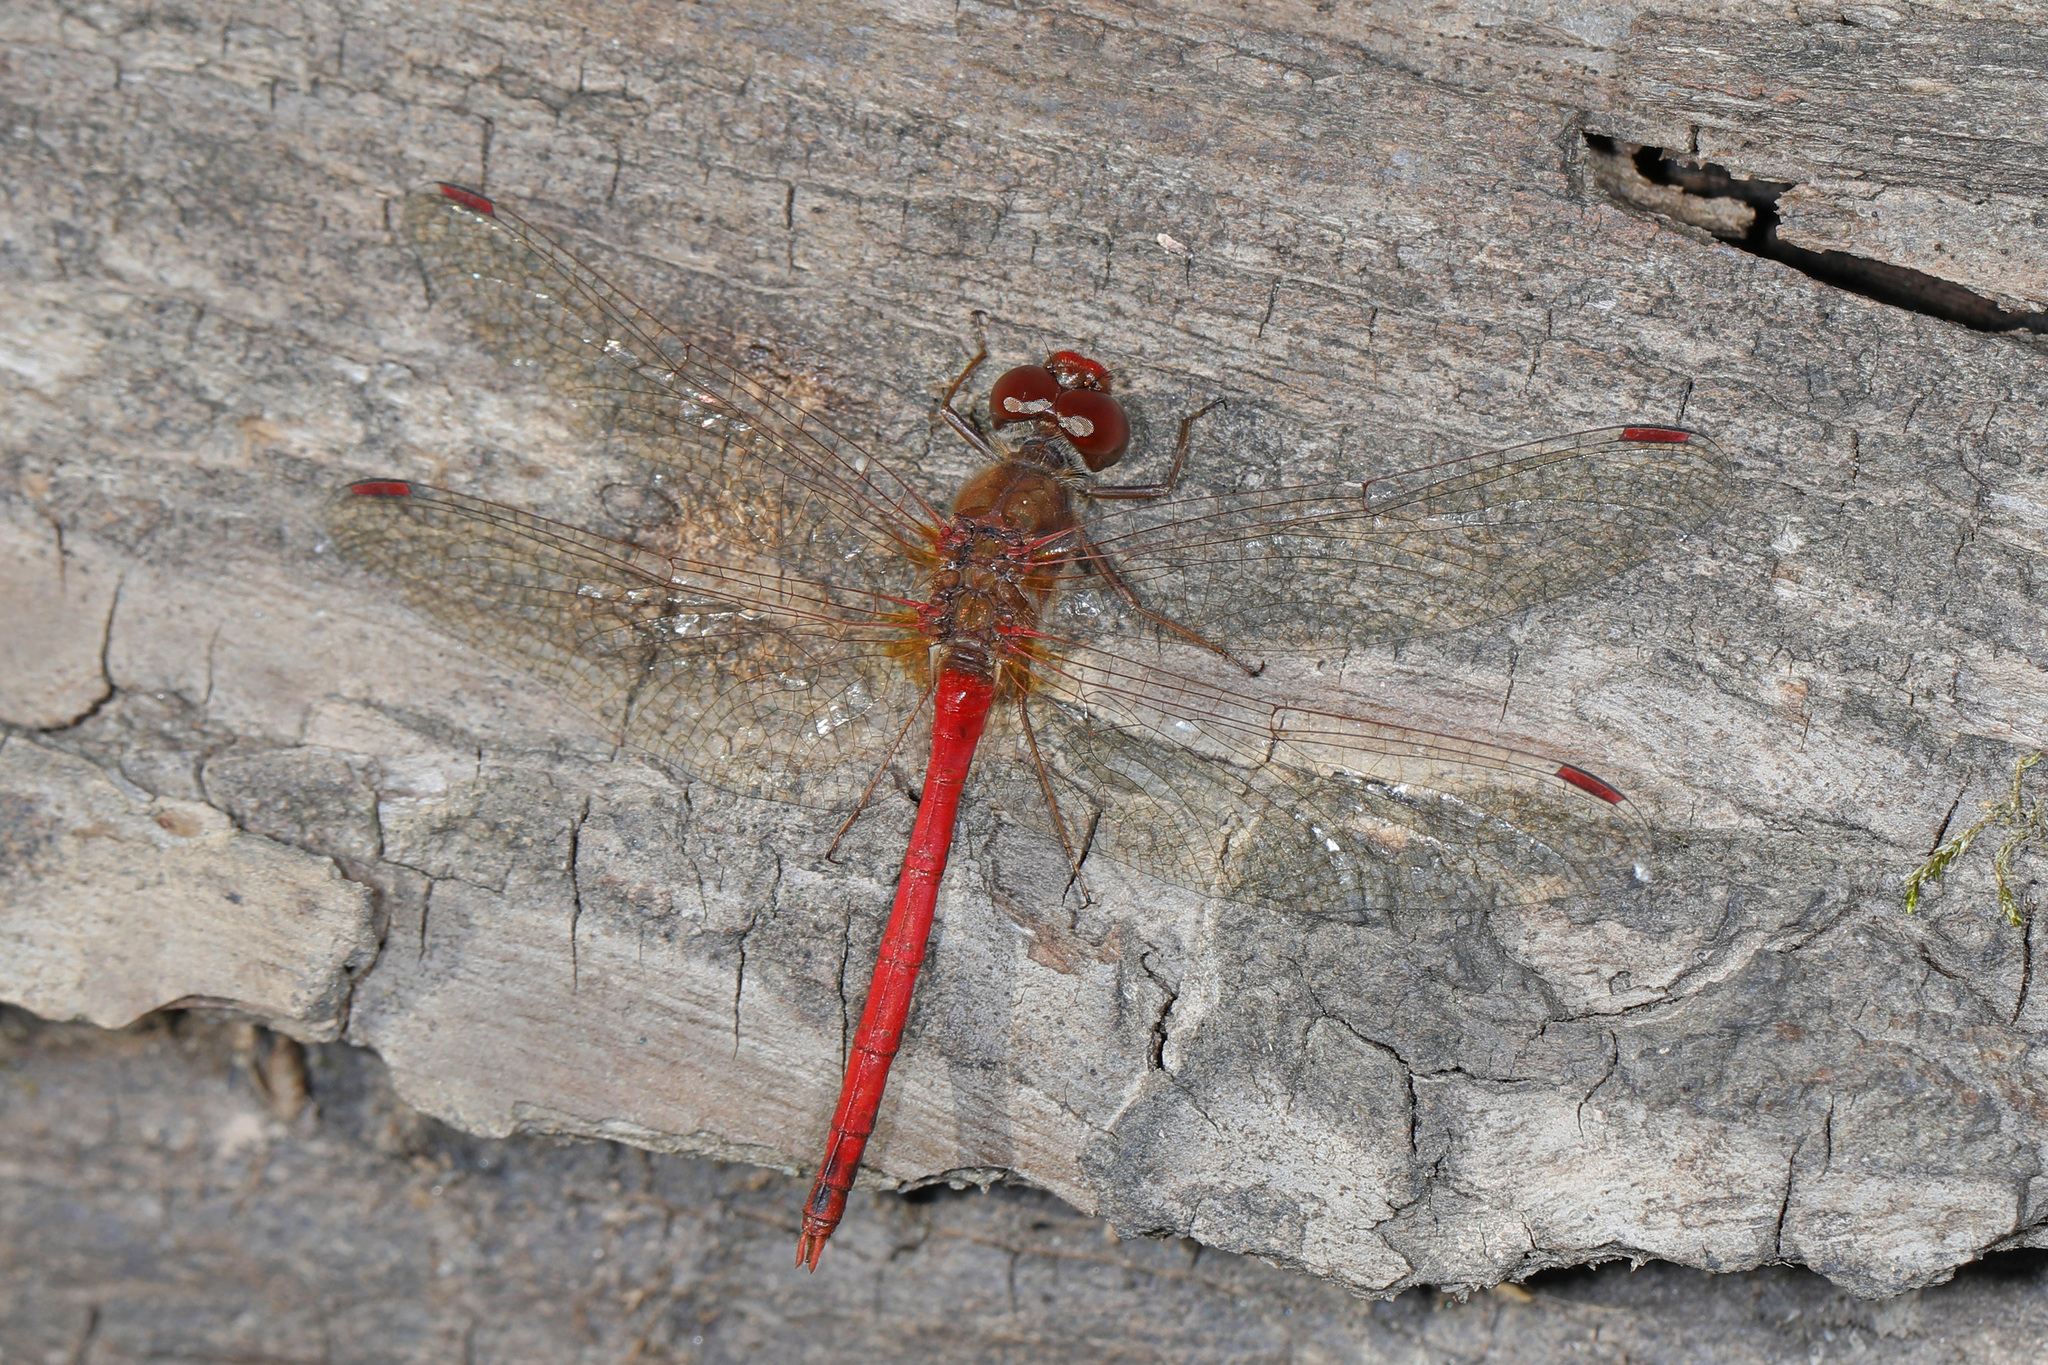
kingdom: Animalia
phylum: Arthropoda
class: Insecta
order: Odonata
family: Libellulidae
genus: Sympetrum
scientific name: Sympetrum vicinum
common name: Autumn meadowhawk
